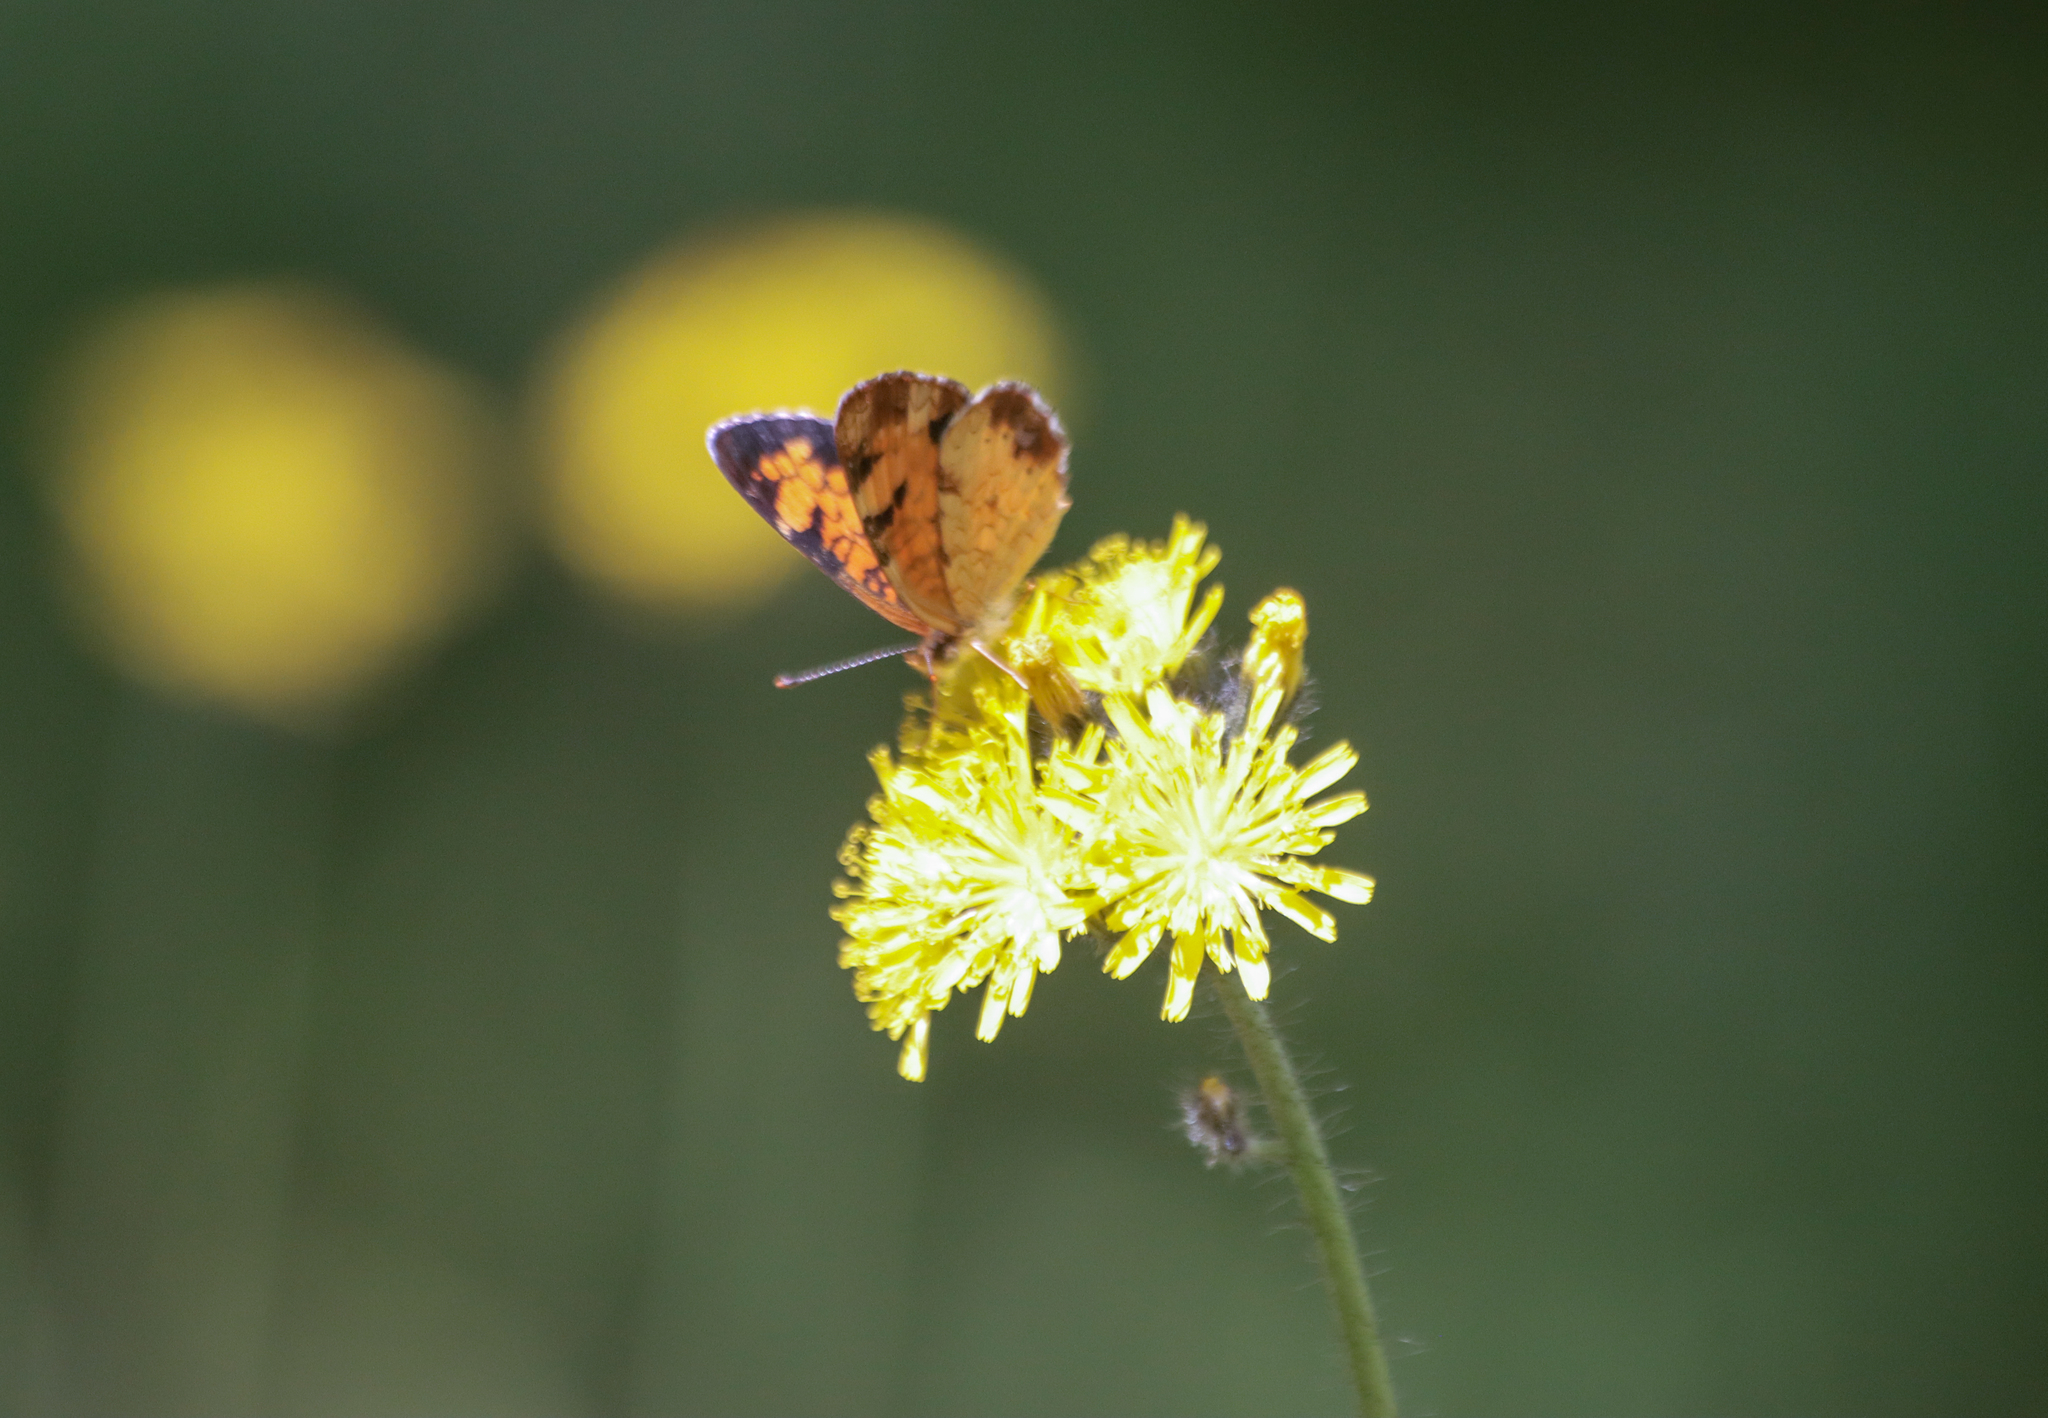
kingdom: Animalia
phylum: Arthropoda
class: Insecta
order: Lepidoptera
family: Nymphalidae
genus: Phyciodes
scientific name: Phyciodes tharos
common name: Pearl crescent
